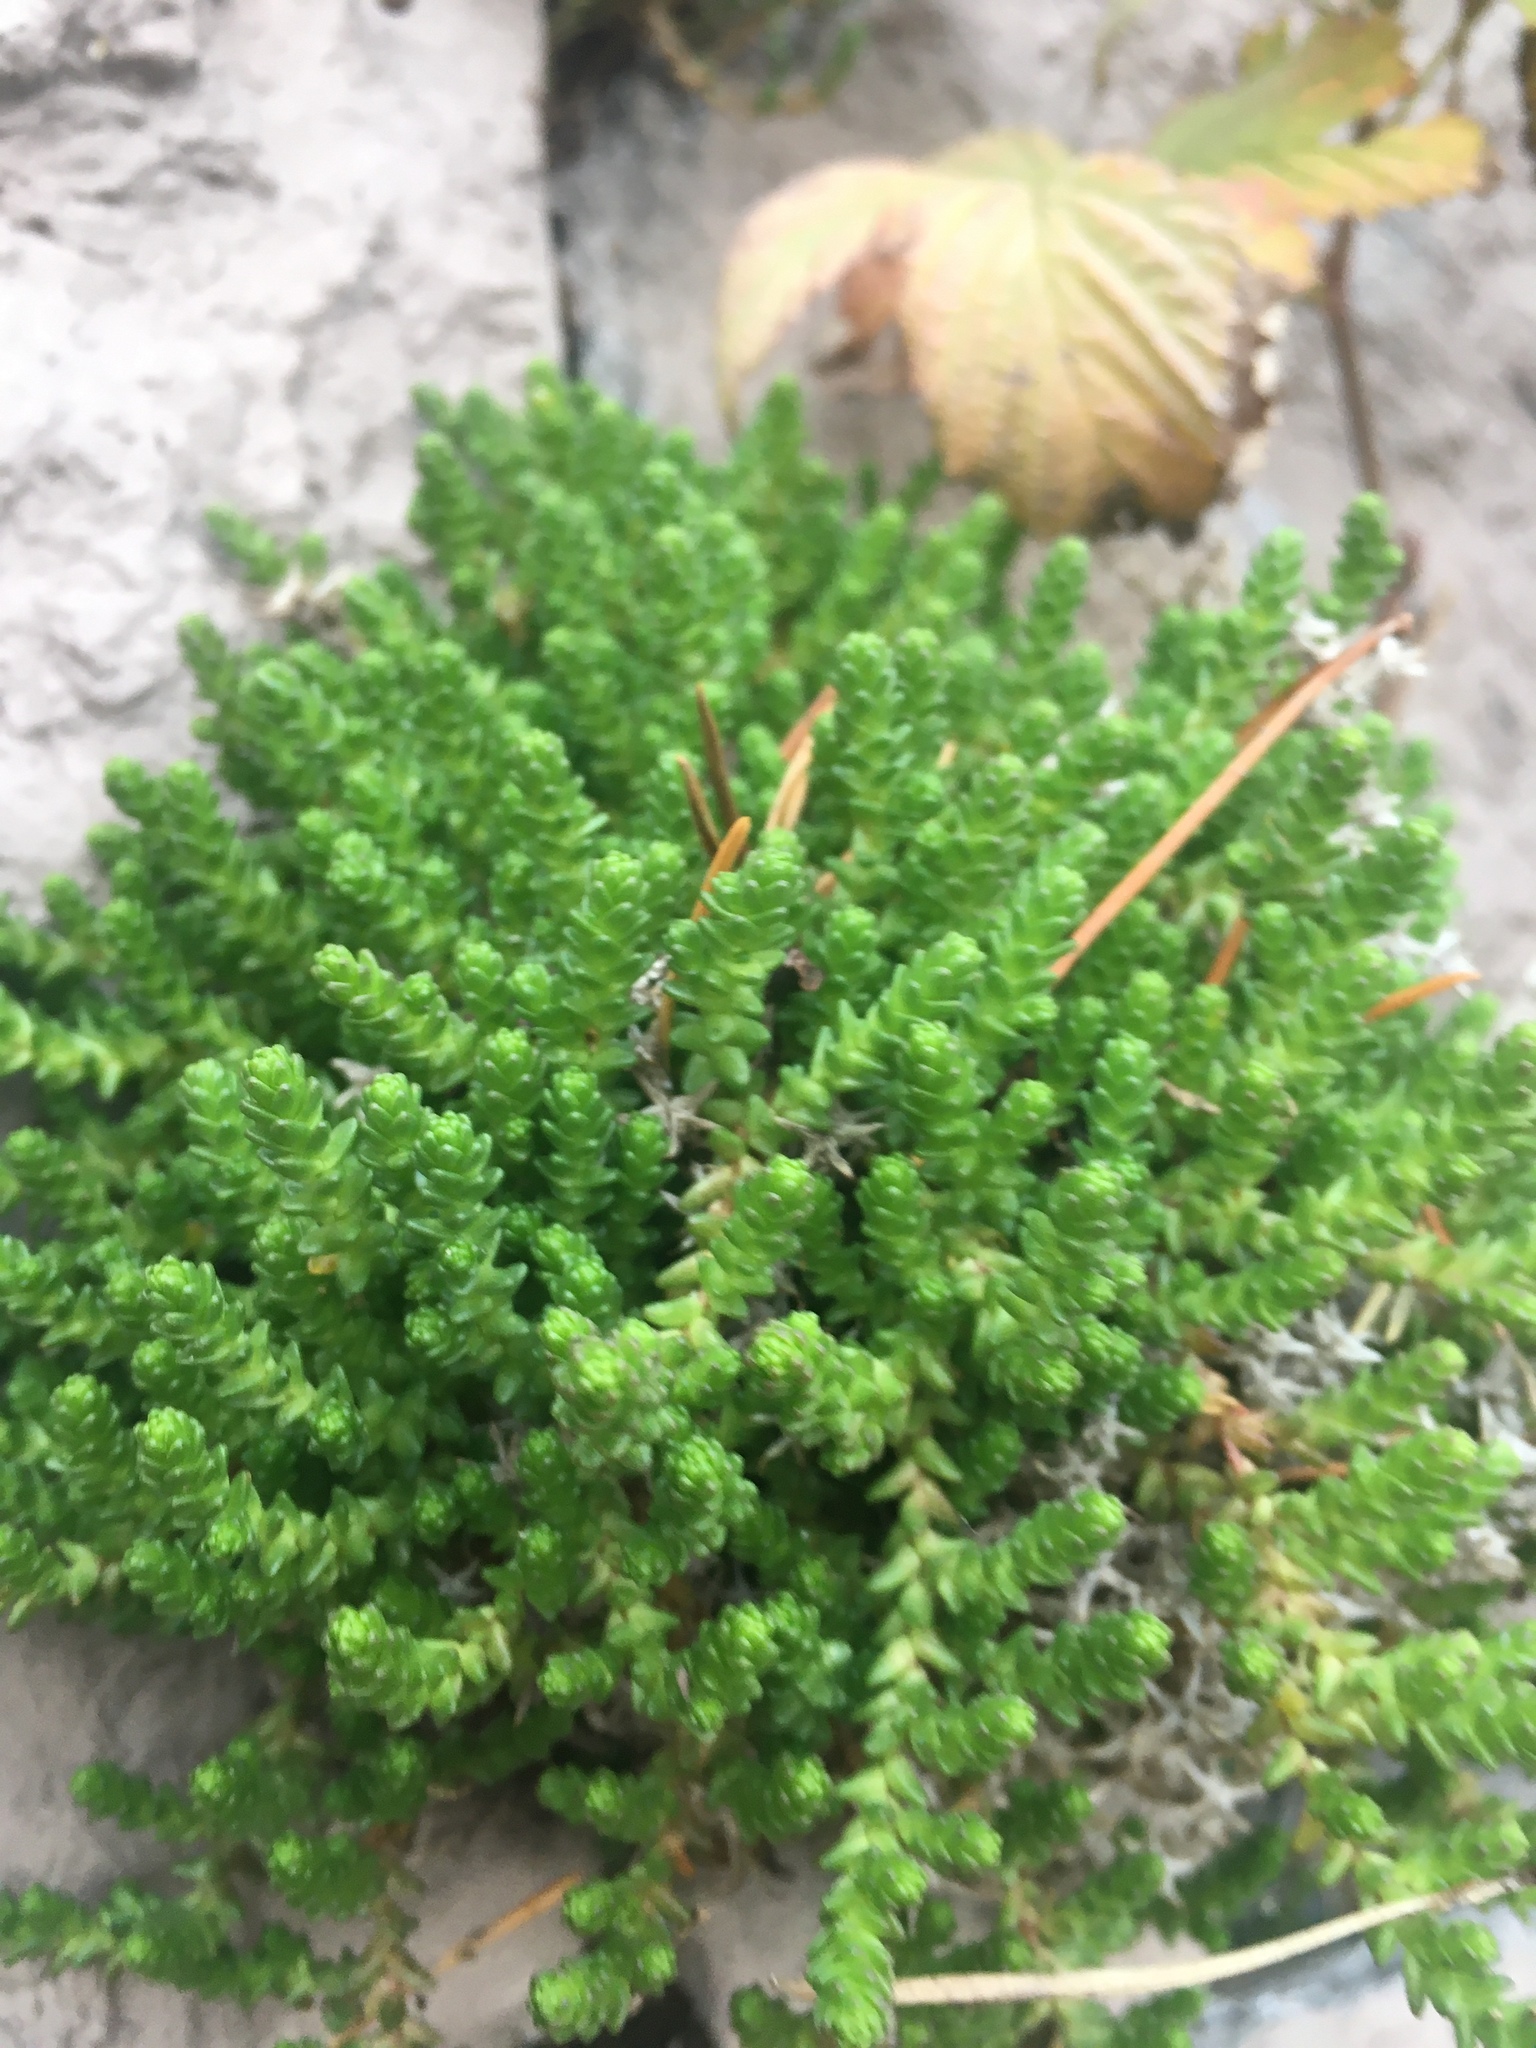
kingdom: Plantae
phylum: Tracheophyta
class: Magnoliopsida
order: Saxifragales
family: Crassulaceae
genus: Sedum
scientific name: Sedum acre
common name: Biting stonecrop
